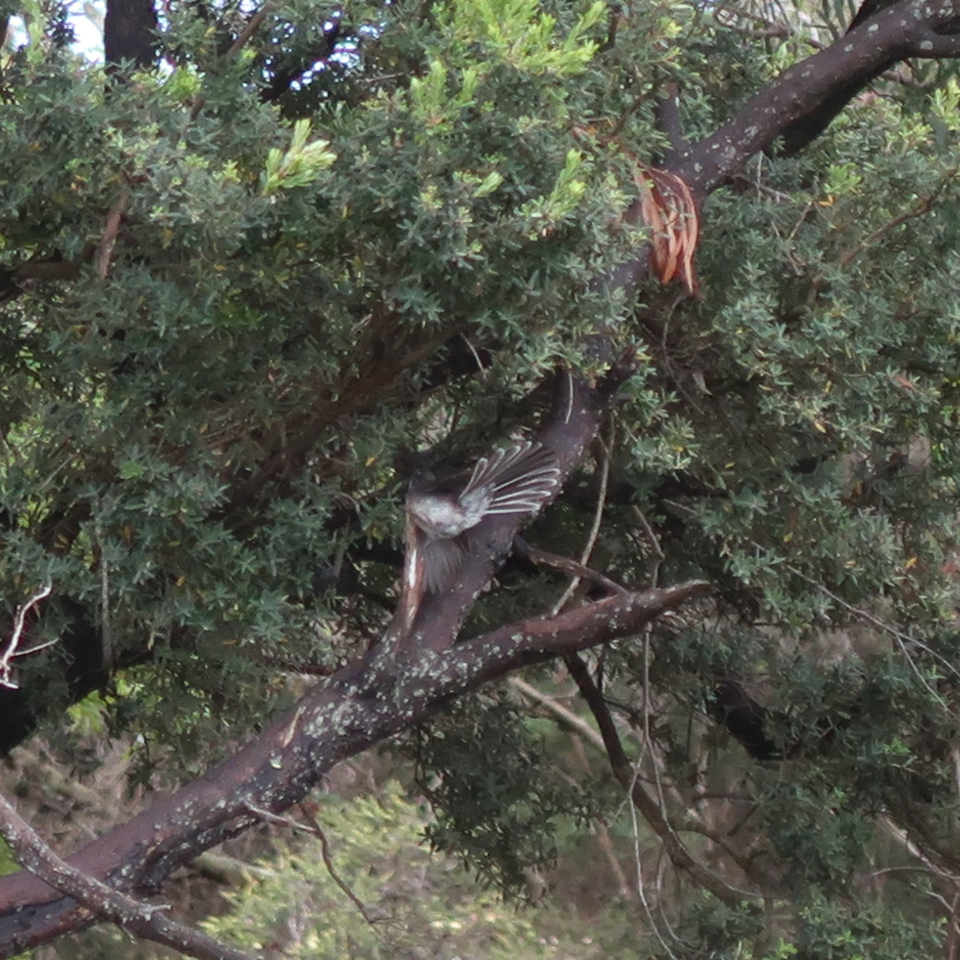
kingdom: Animalia
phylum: Chordata
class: Aves
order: Passeriformes
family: Rhipiduridae
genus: Rhipidura
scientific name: Rhipidura albiscapa
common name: Grey fantail
